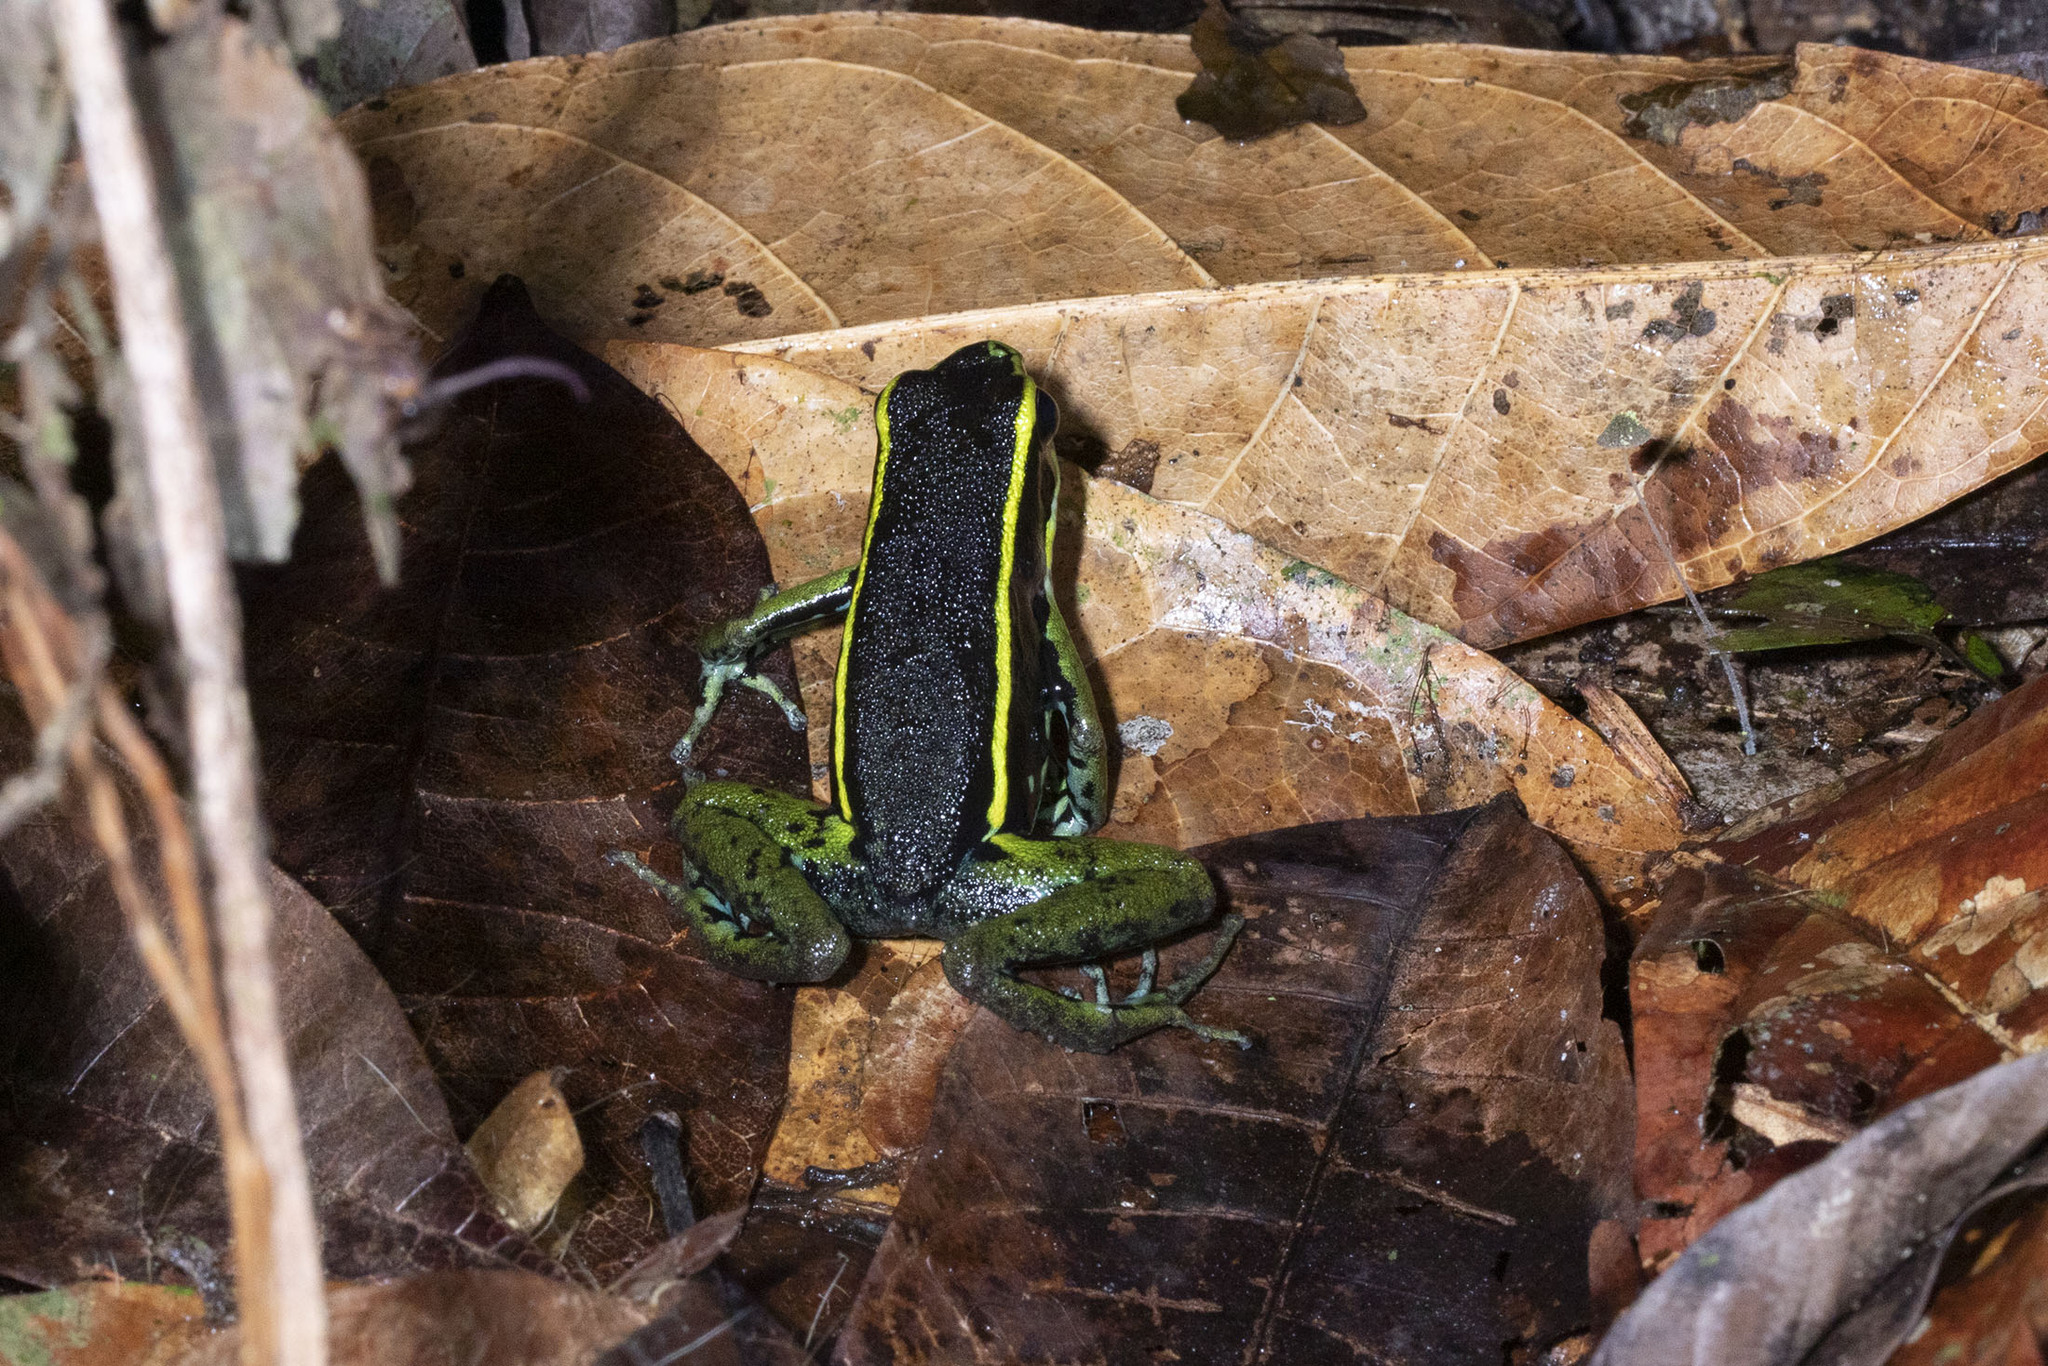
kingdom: Animalia
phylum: Chordata
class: Amphibia
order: Anura
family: Dendrobatidae
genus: Ameerega
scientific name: Ameerega trivittata
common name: Three-striped arrow-poison frog
